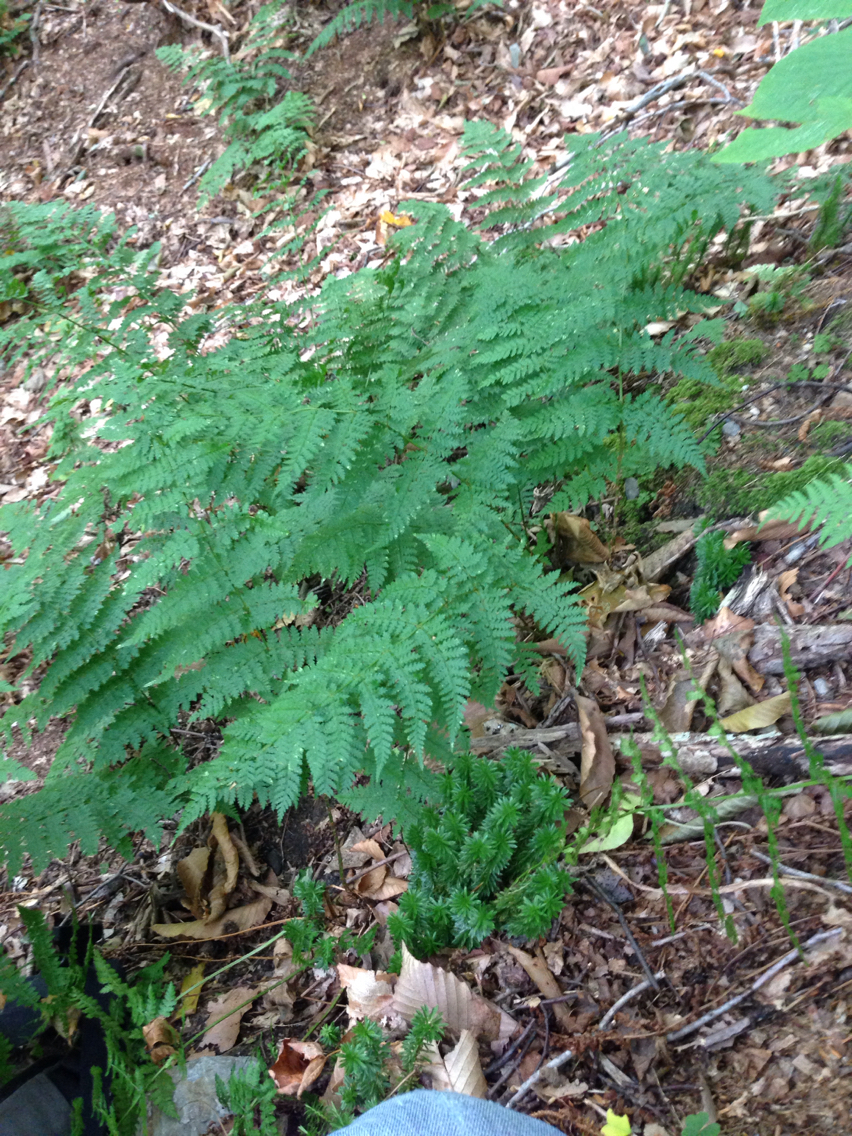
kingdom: Plantae
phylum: Tracheophyta
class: Polypodiopsida
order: Polypodiales
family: Dryopteridaceae
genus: Dryopteris
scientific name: Dryopteris intermedia
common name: Evergreen wood fern
